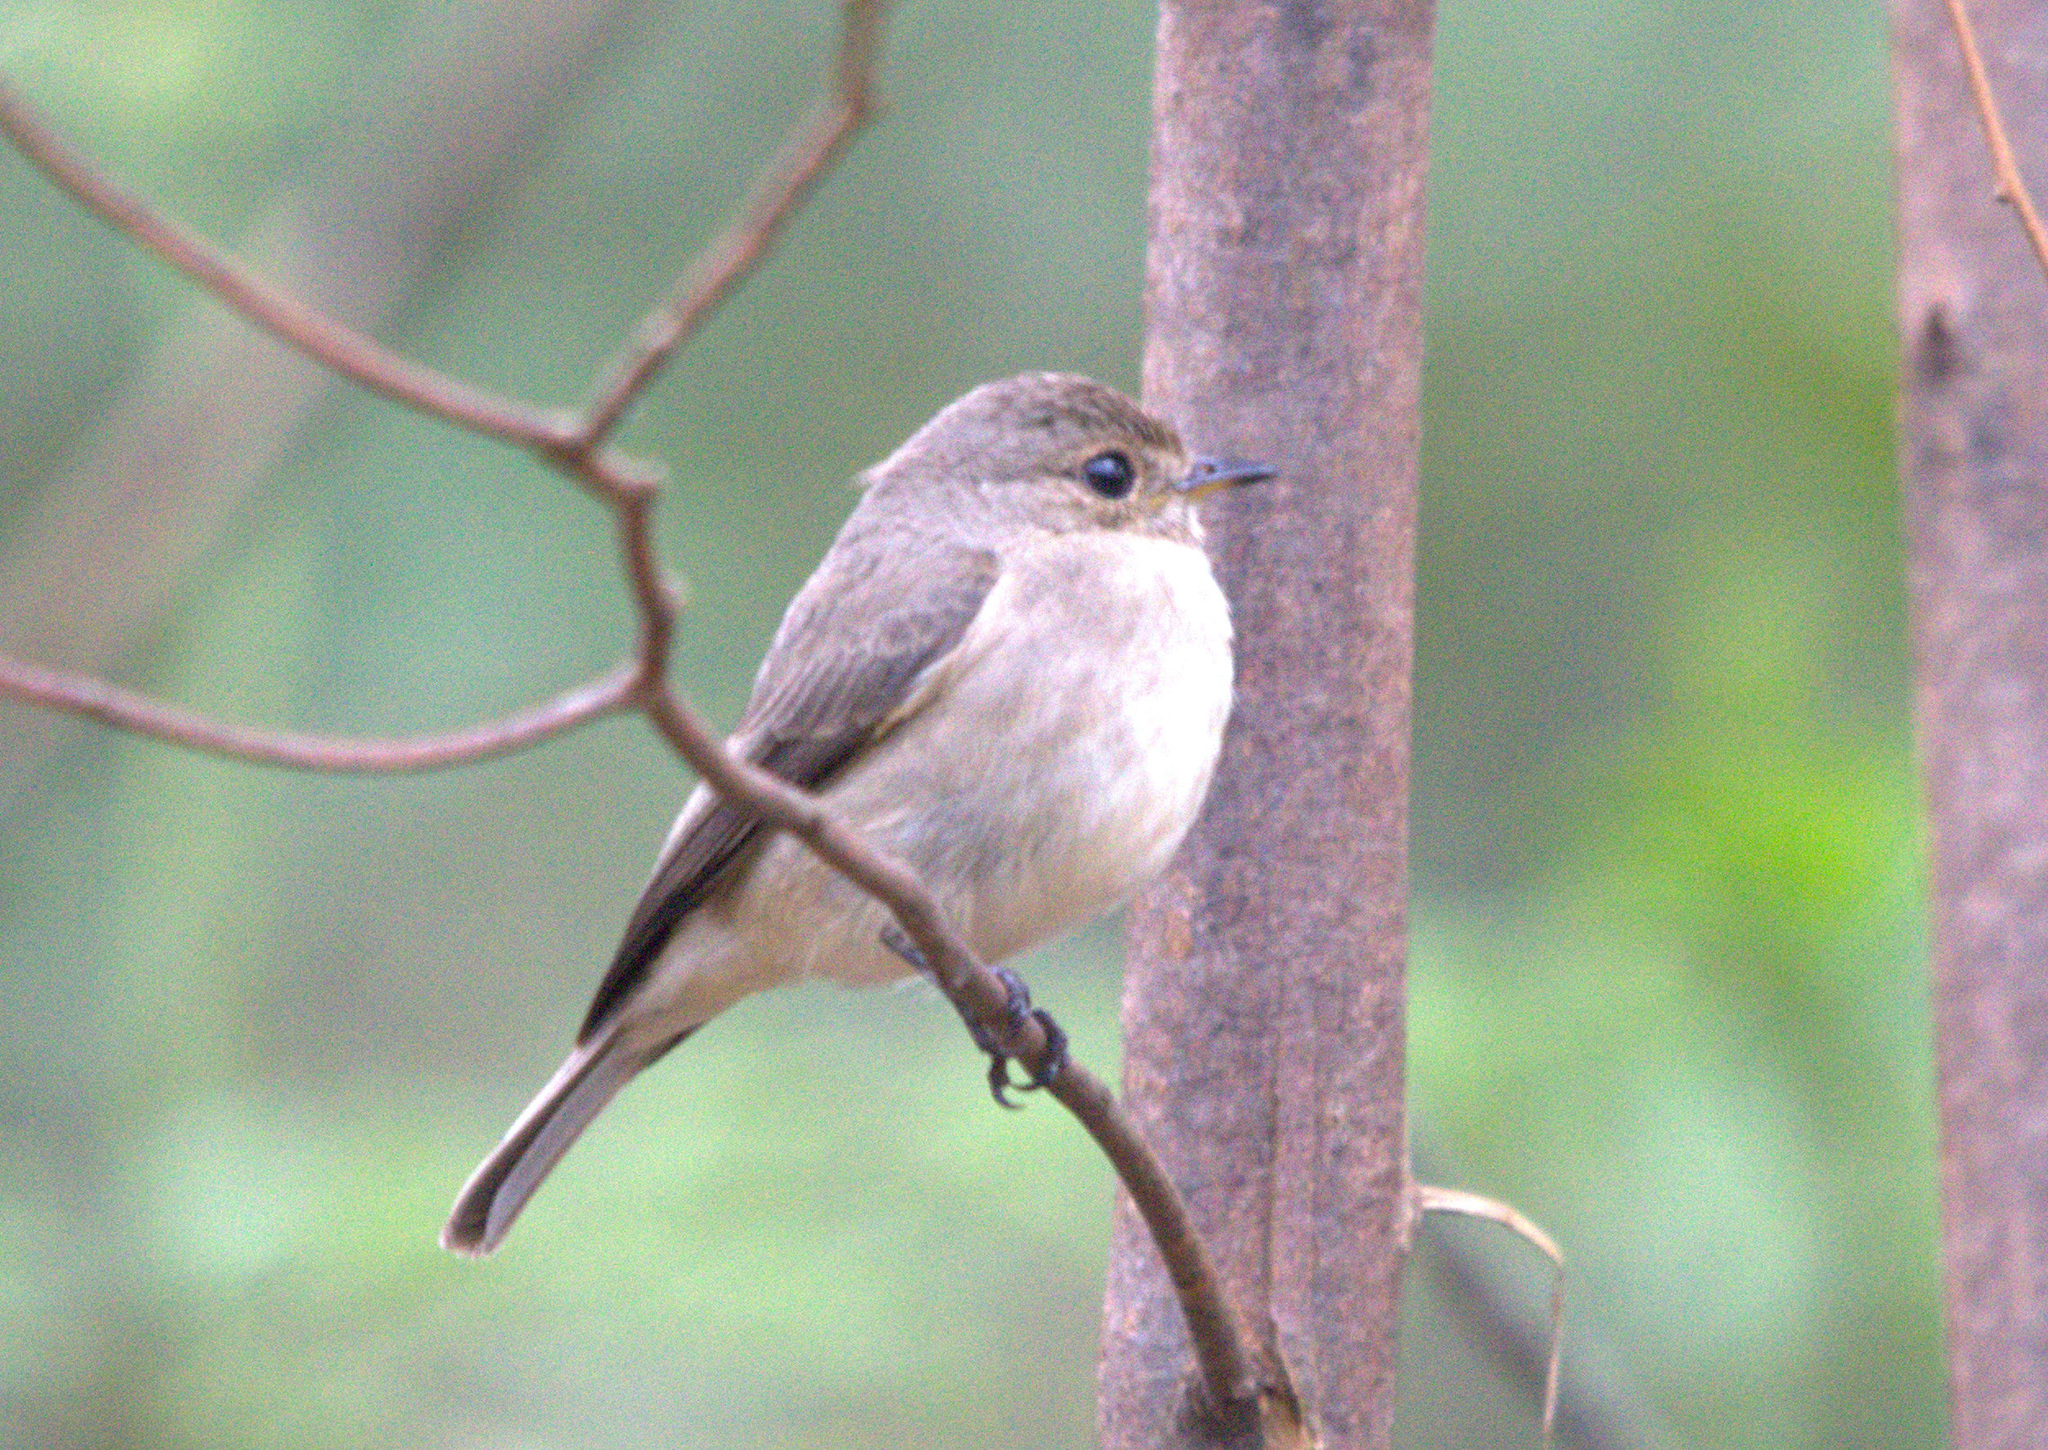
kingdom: Animalia
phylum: Chordata
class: Aves
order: Passeriformes
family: Muscicapidae
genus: Muscicapa
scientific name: Muscicapa adusta
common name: African dusky flycatcher
